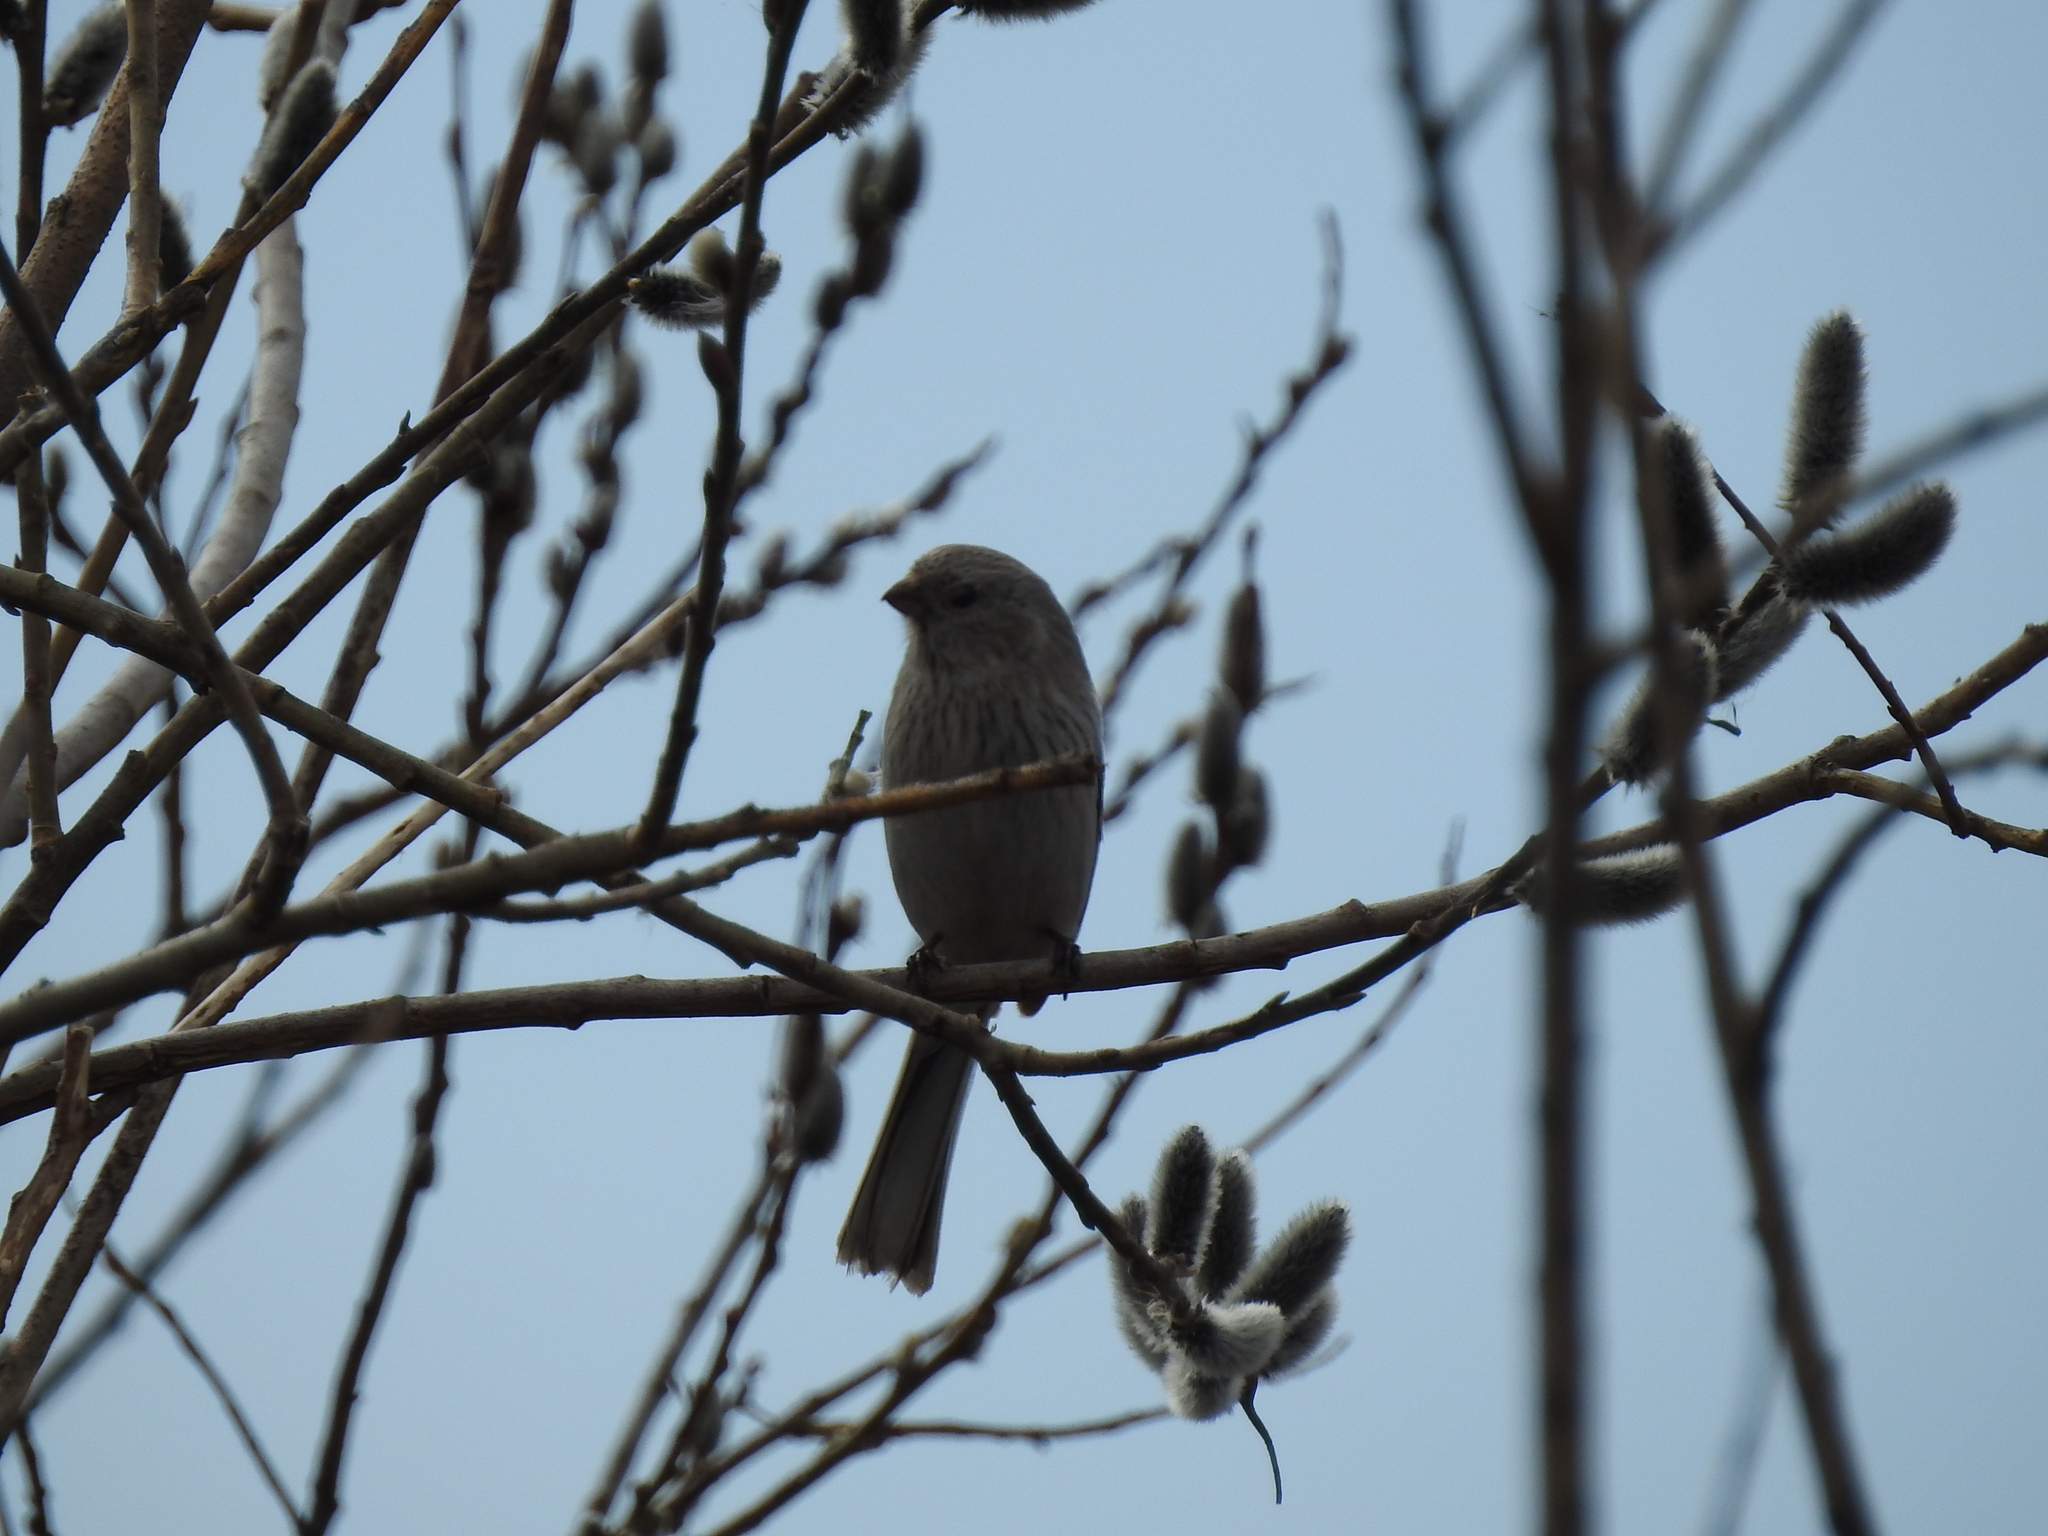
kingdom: Animalia
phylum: Chordata
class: Aves
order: Passeriformes
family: Fringillidae
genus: Carpodacus
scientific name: Carpodacus sibiricus
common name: Long-tailed rosefinch
